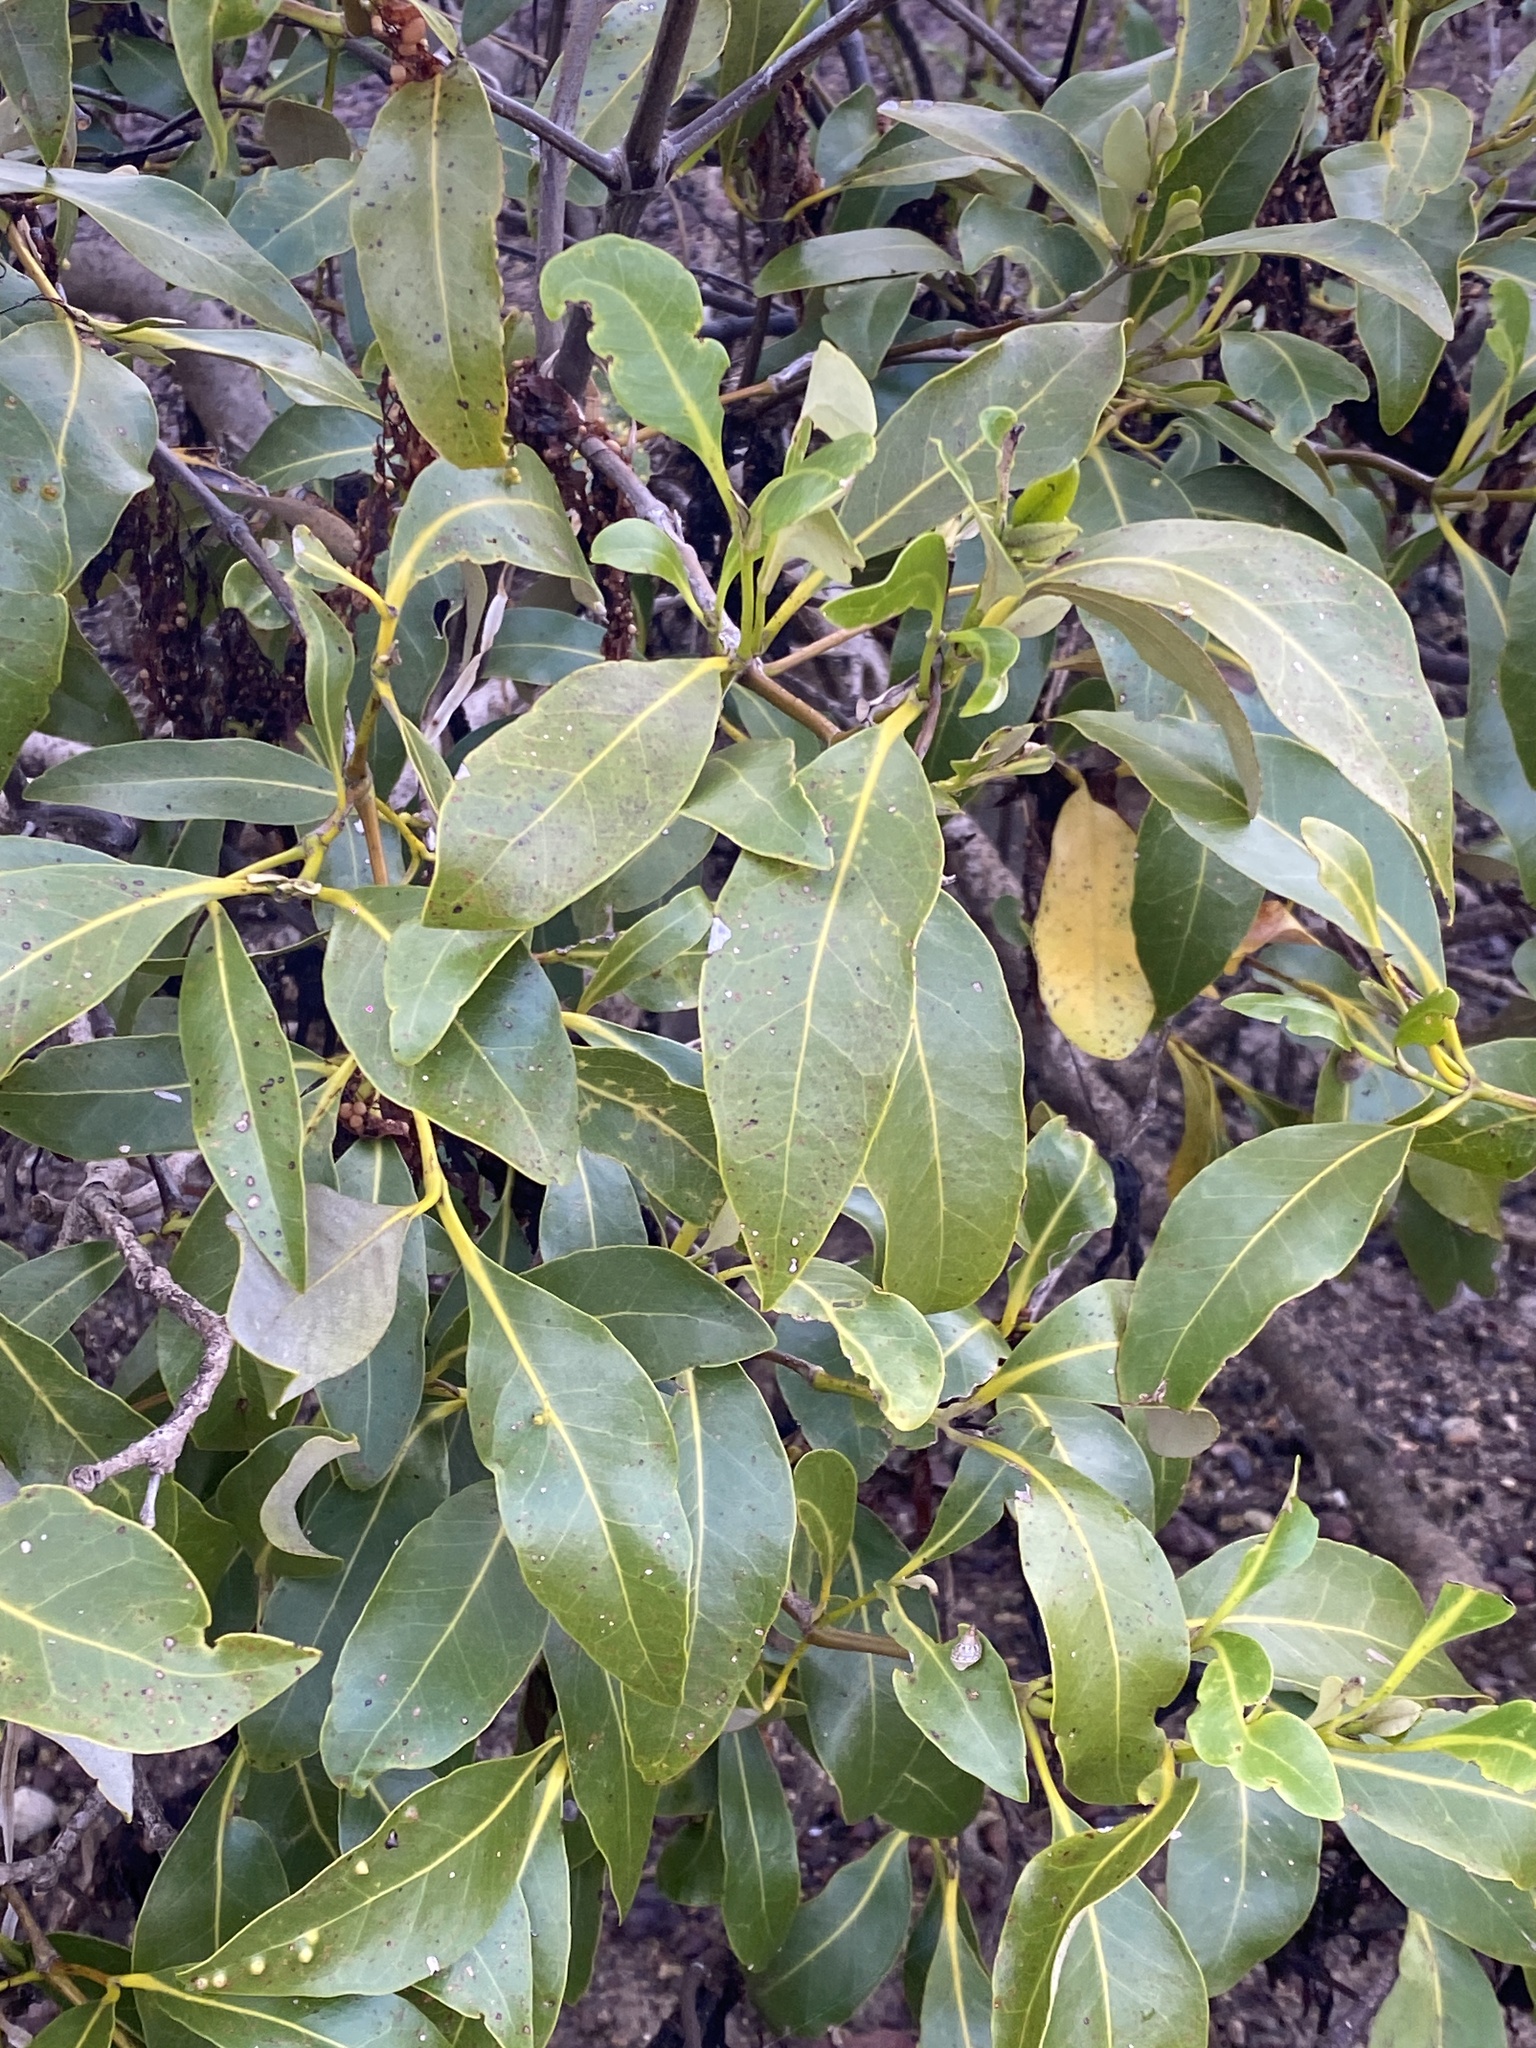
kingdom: Plantae
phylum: Tracheophyta
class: Magnoliopsida
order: Lamiales
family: Acanthaceae
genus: Avicennia
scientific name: Avicennia marina
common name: Gray mangrove
